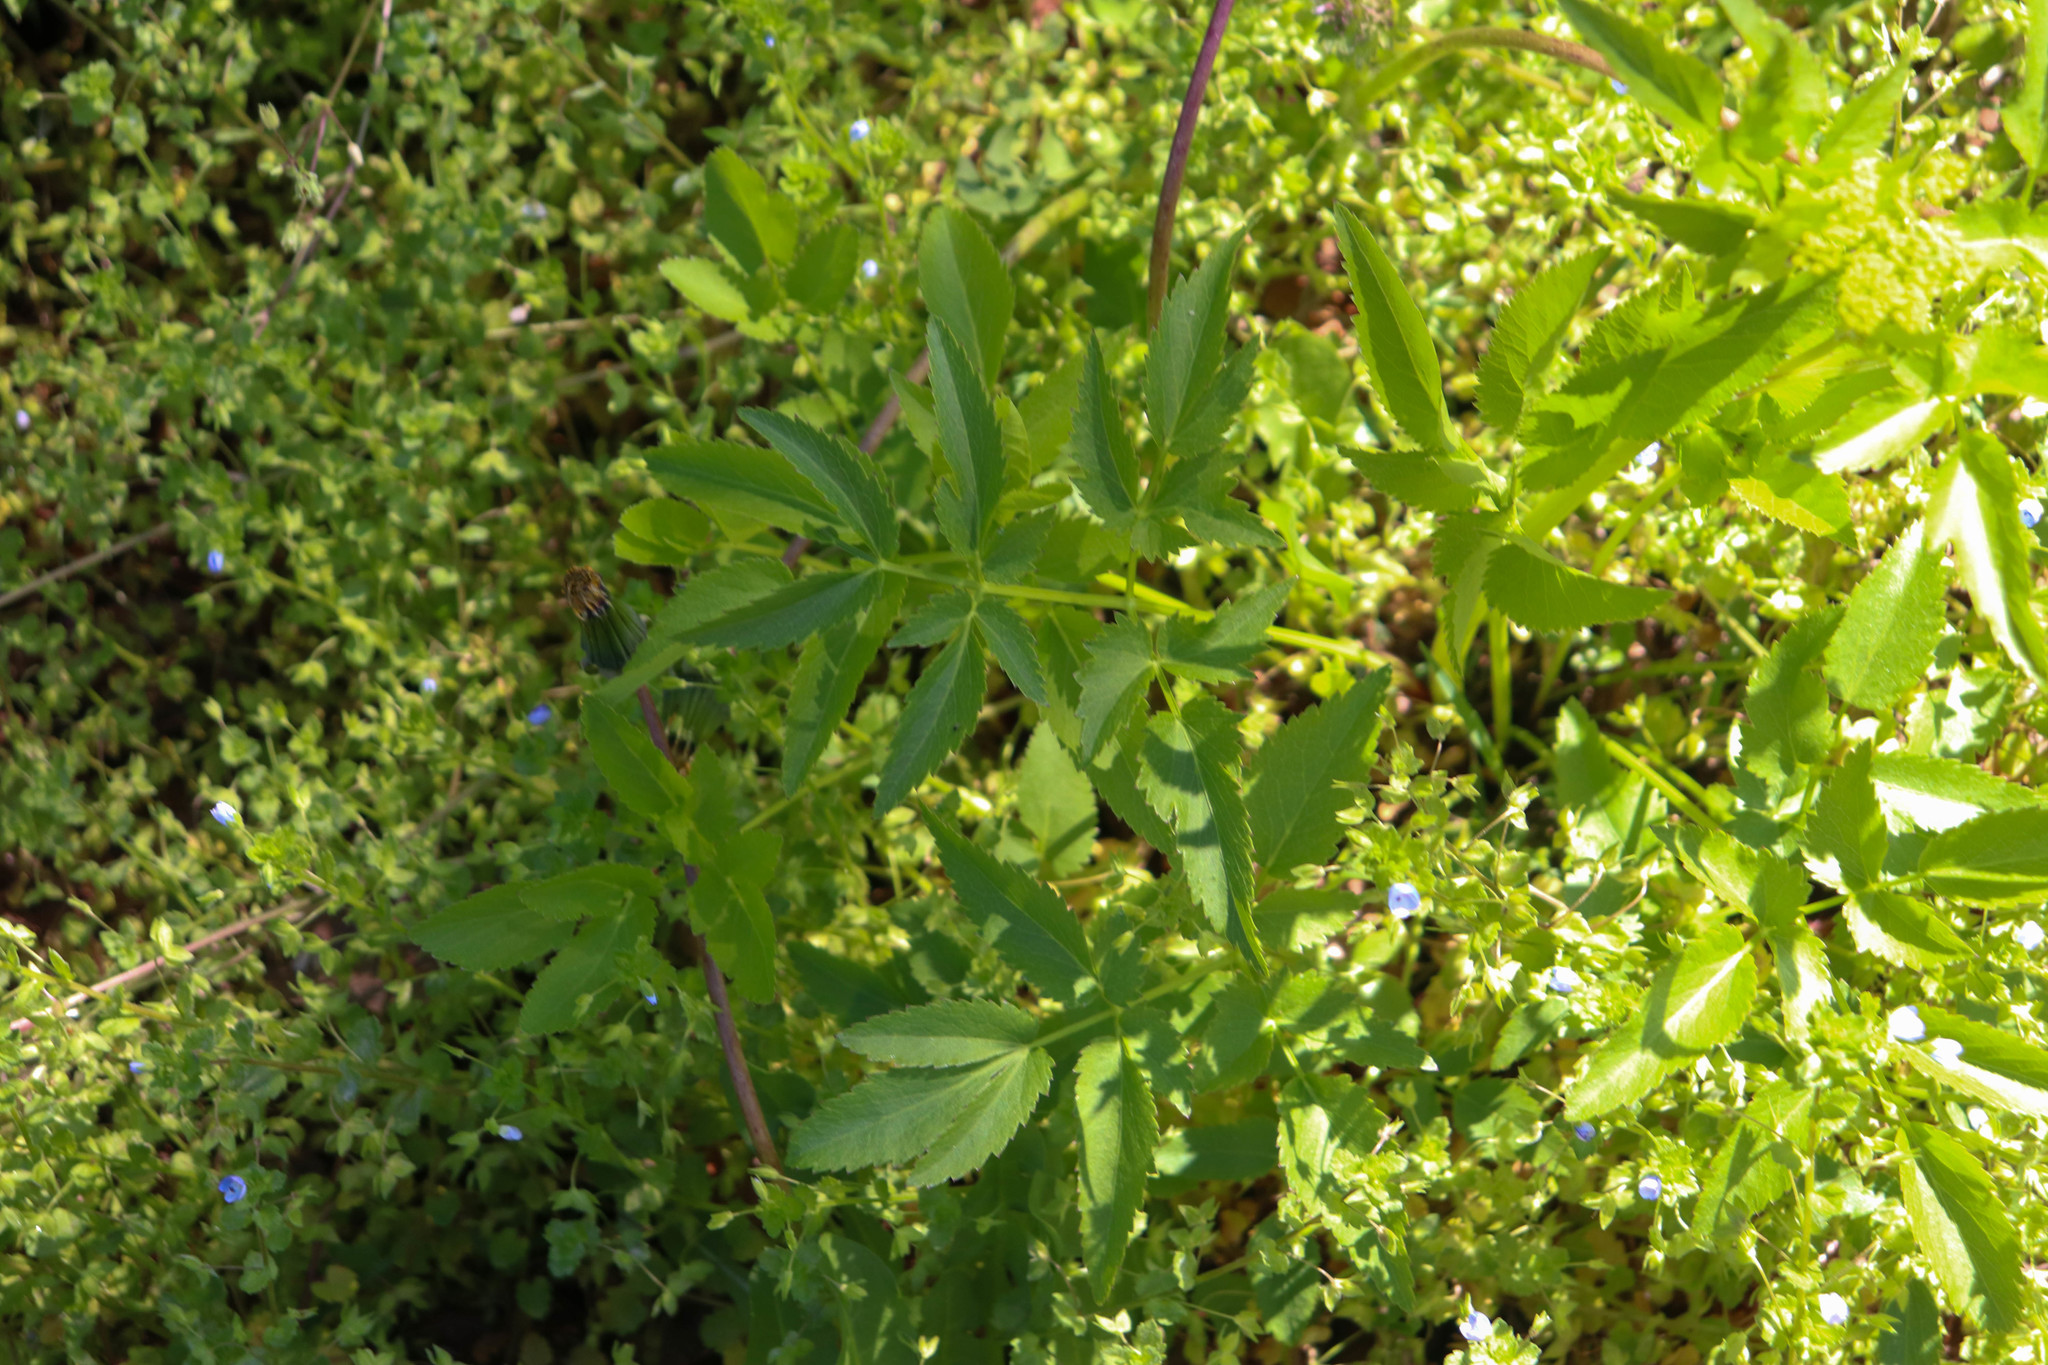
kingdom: Plantae
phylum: Tracheophyta
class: Magnoliopsida
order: Apiales
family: Apiaceae
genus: Zizia
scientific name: Zizia aurea
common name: Golden alexanders
